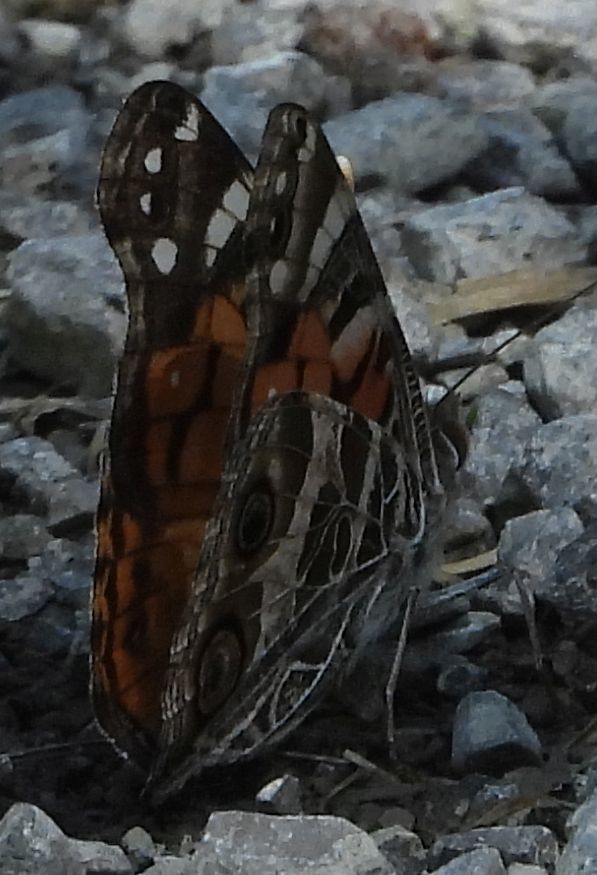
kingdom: Animalia
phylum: Arthropoda
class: Insecta
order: Lepidoptera
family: Nymphalidae
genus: Vanessa
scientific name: Vanessa virginiensis
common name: American lady
